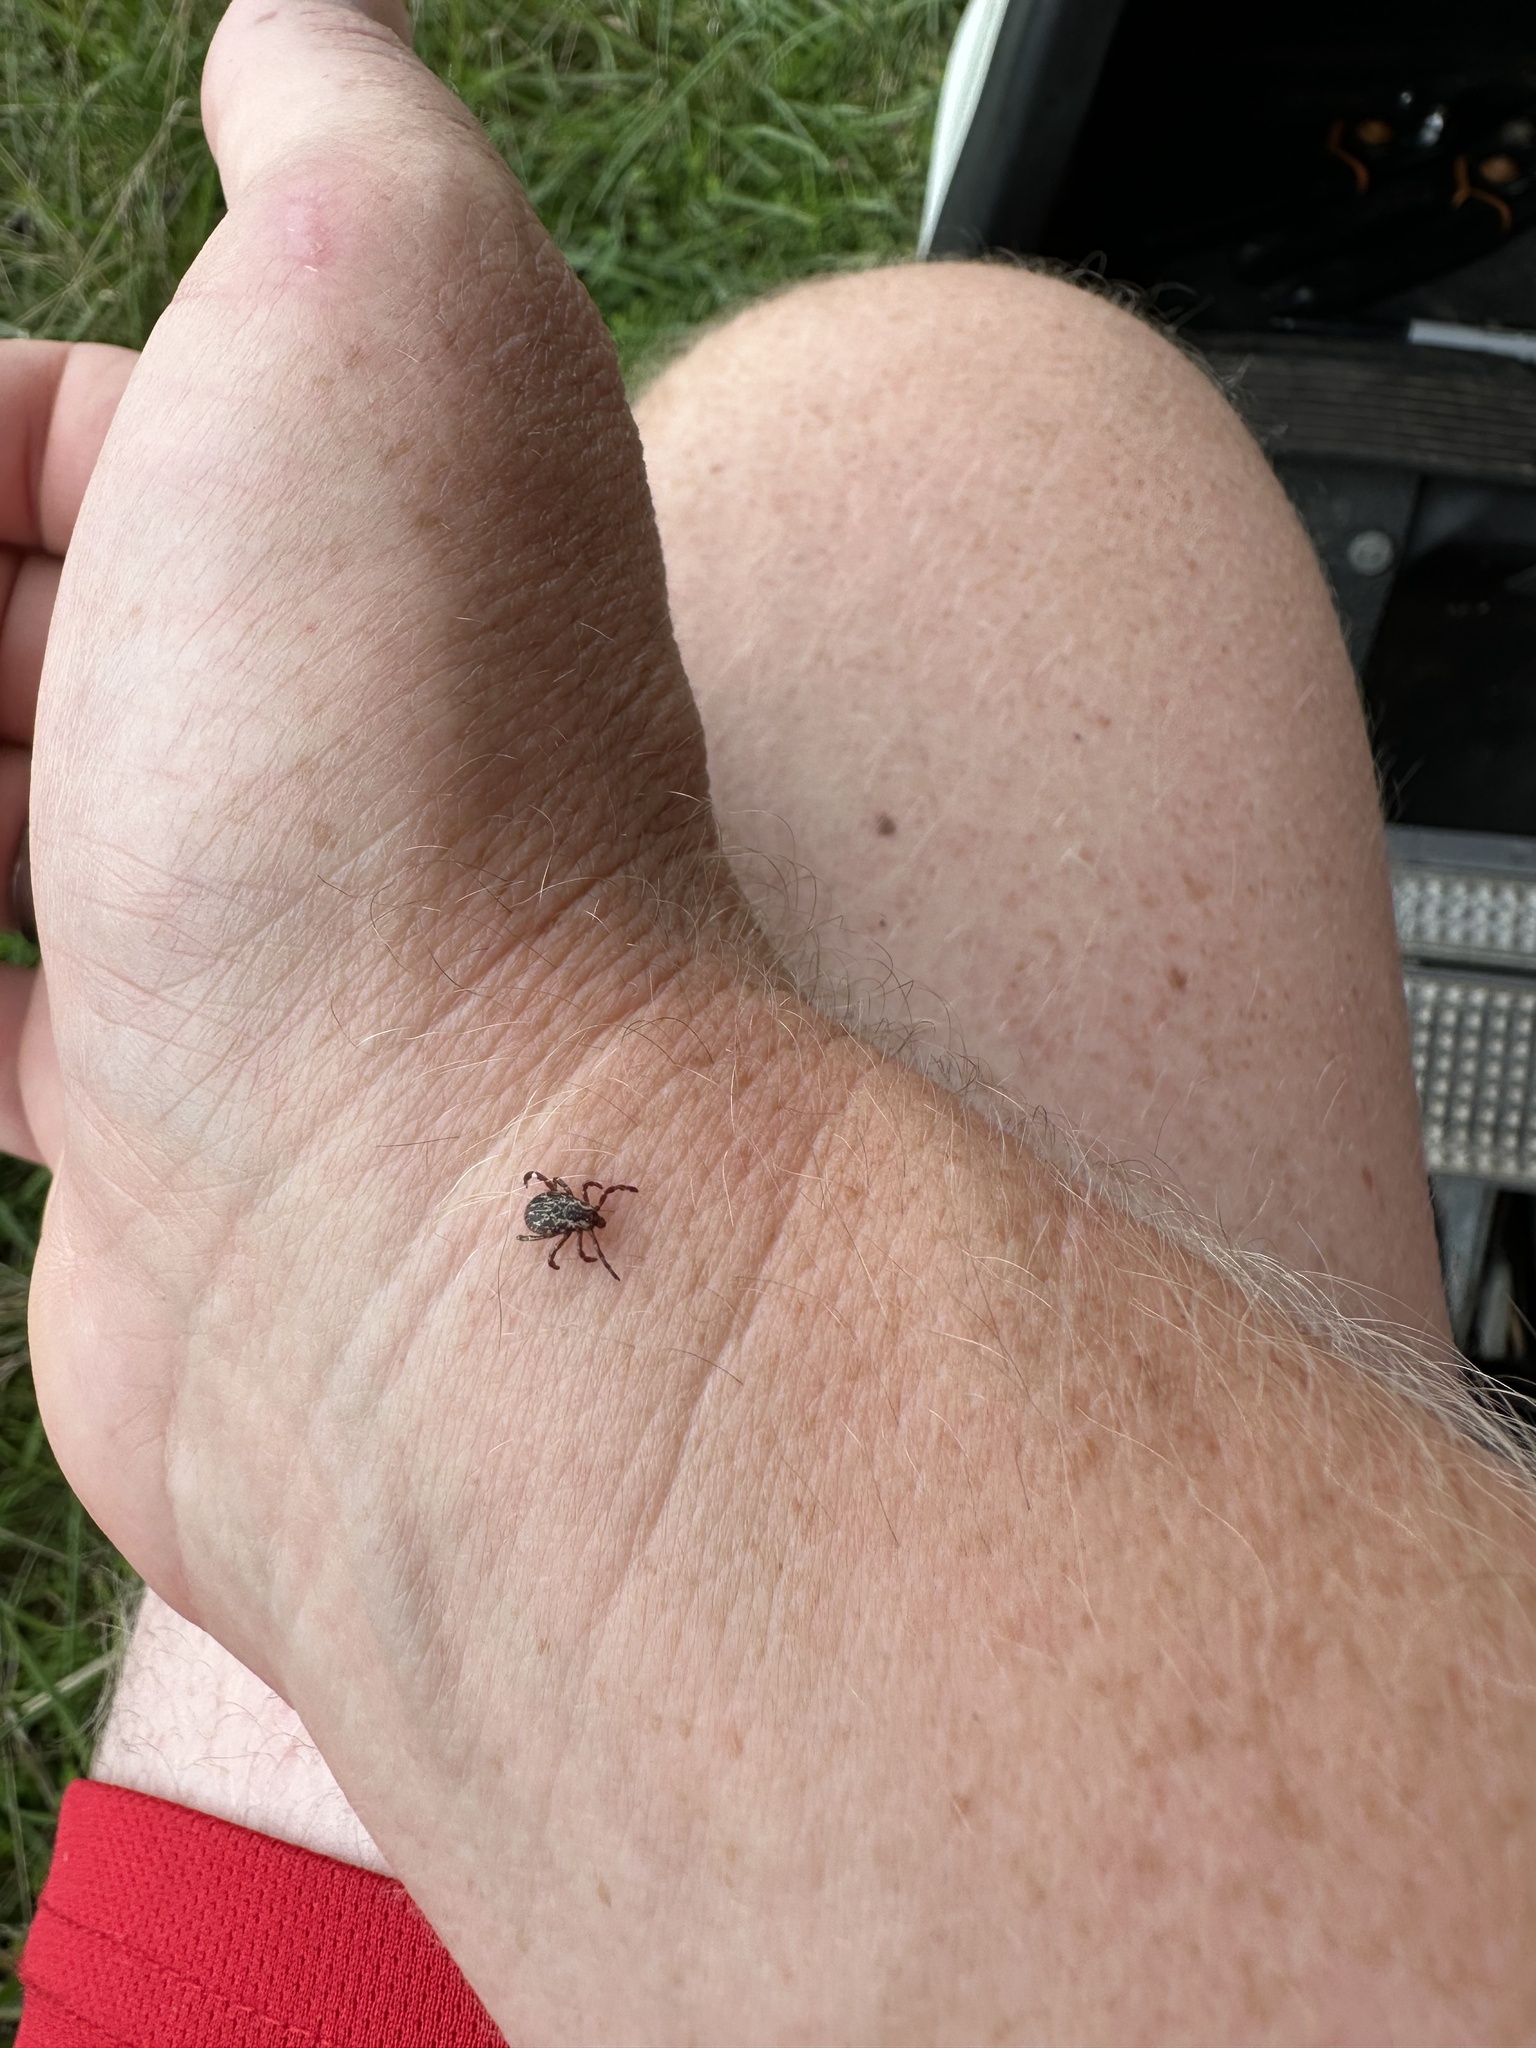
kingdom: Animalia
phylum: Arthropoda
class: Arachnida
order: Ixodida
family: Ixodidae
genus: Dermacentor
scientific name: Dermacentor variabilis
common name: American dog tick
